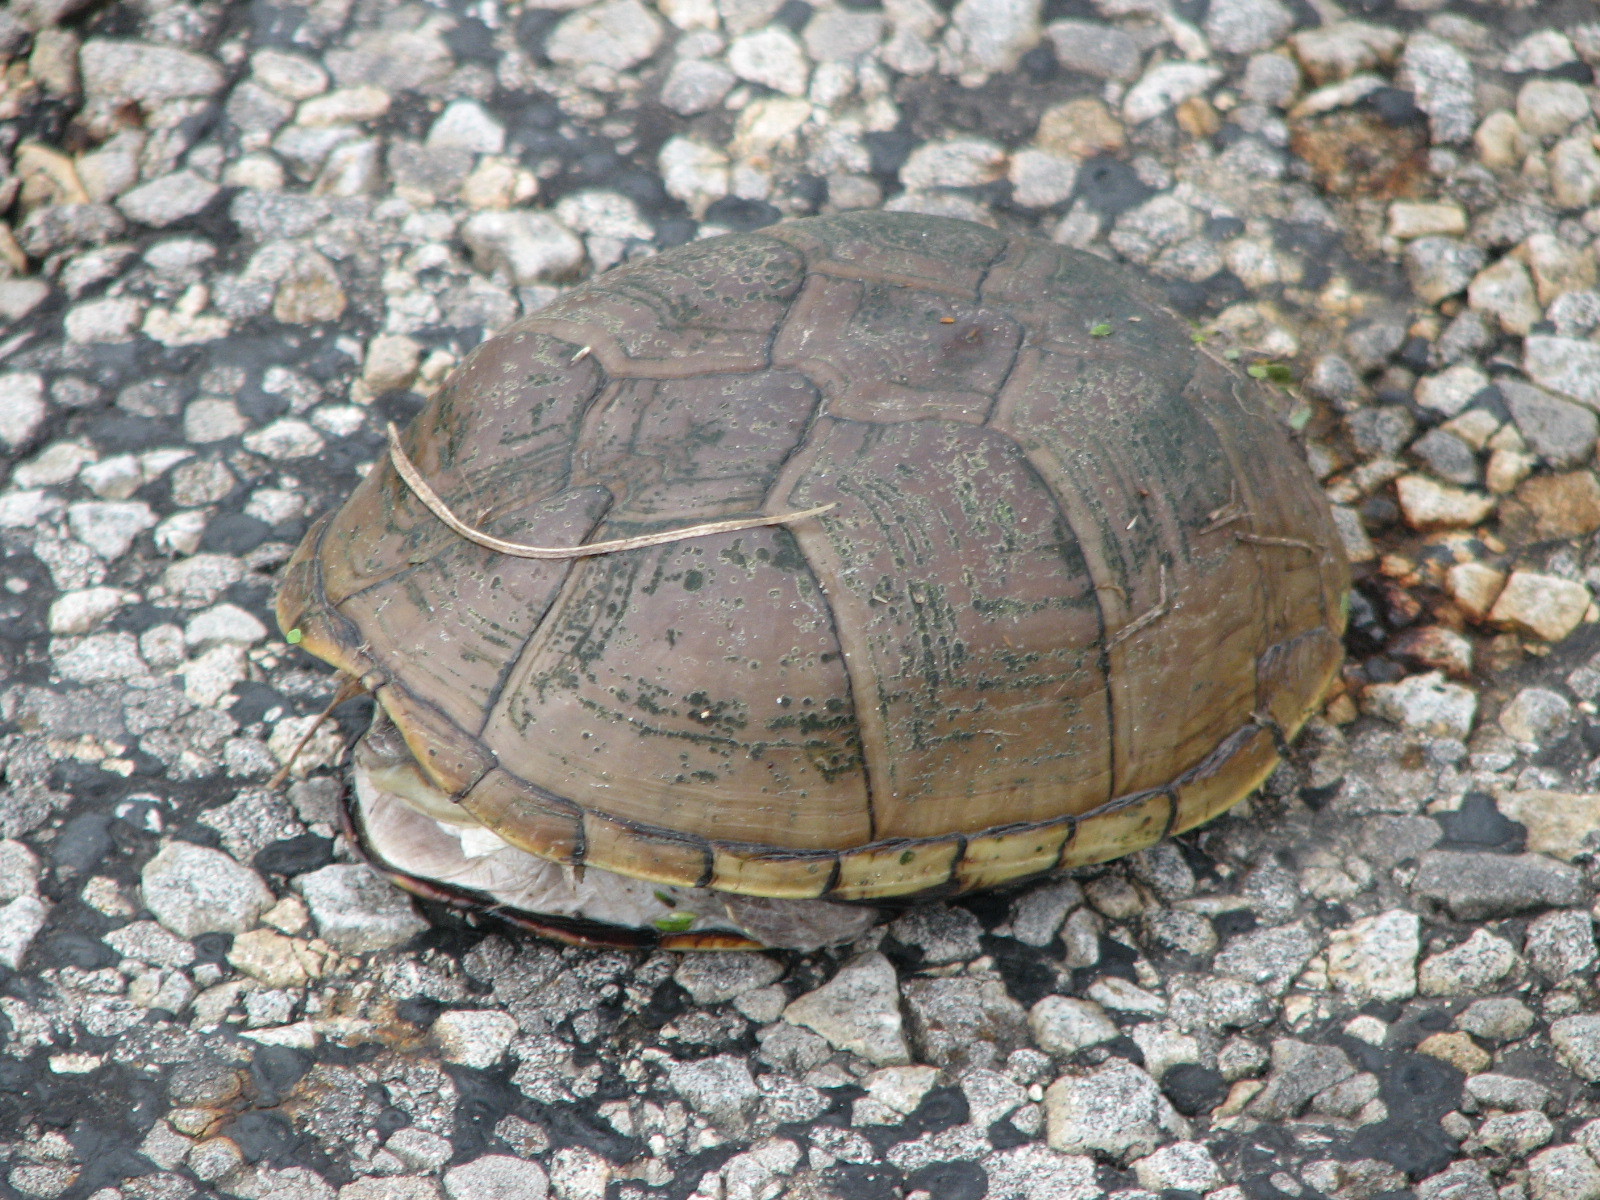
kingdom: Animalia
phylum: Chordata
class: Testudines
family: Kinosternidae
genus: Kinosternon
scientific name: Kinosternon flavescens
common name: Yellow mud turtle
